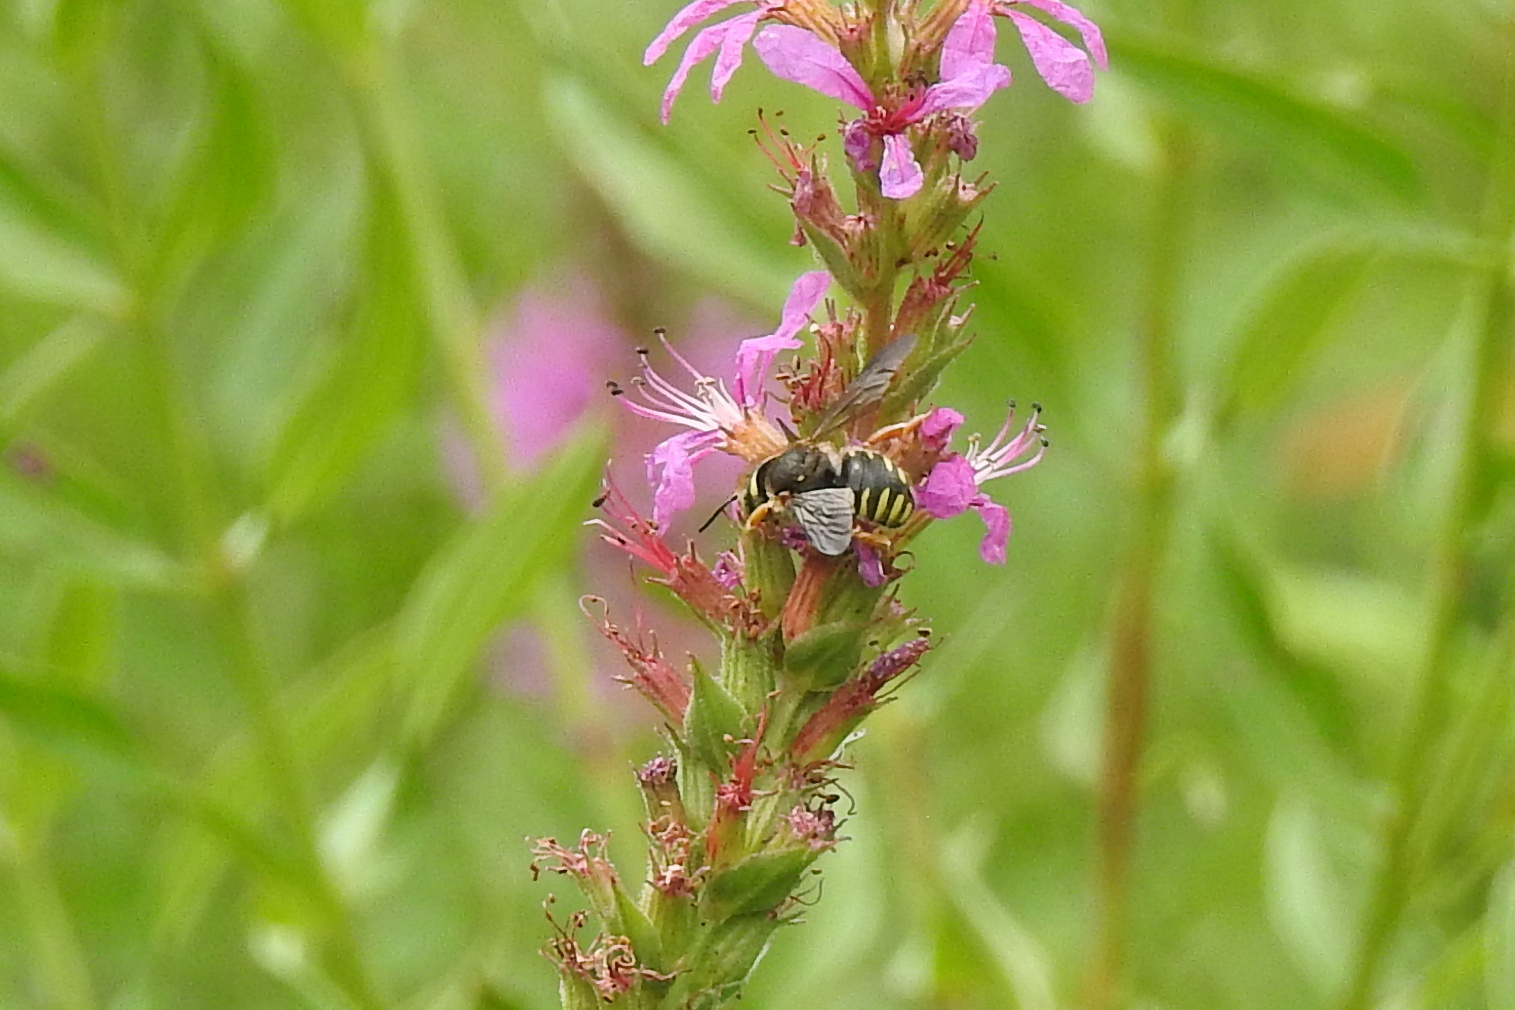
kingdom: Animalia
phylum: Arthropoda
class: Insecta
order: Hymenoptera
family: Megachilidae
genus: Anthidium
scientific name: Anthidium oblongatum
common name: Oblong wool carder bee
